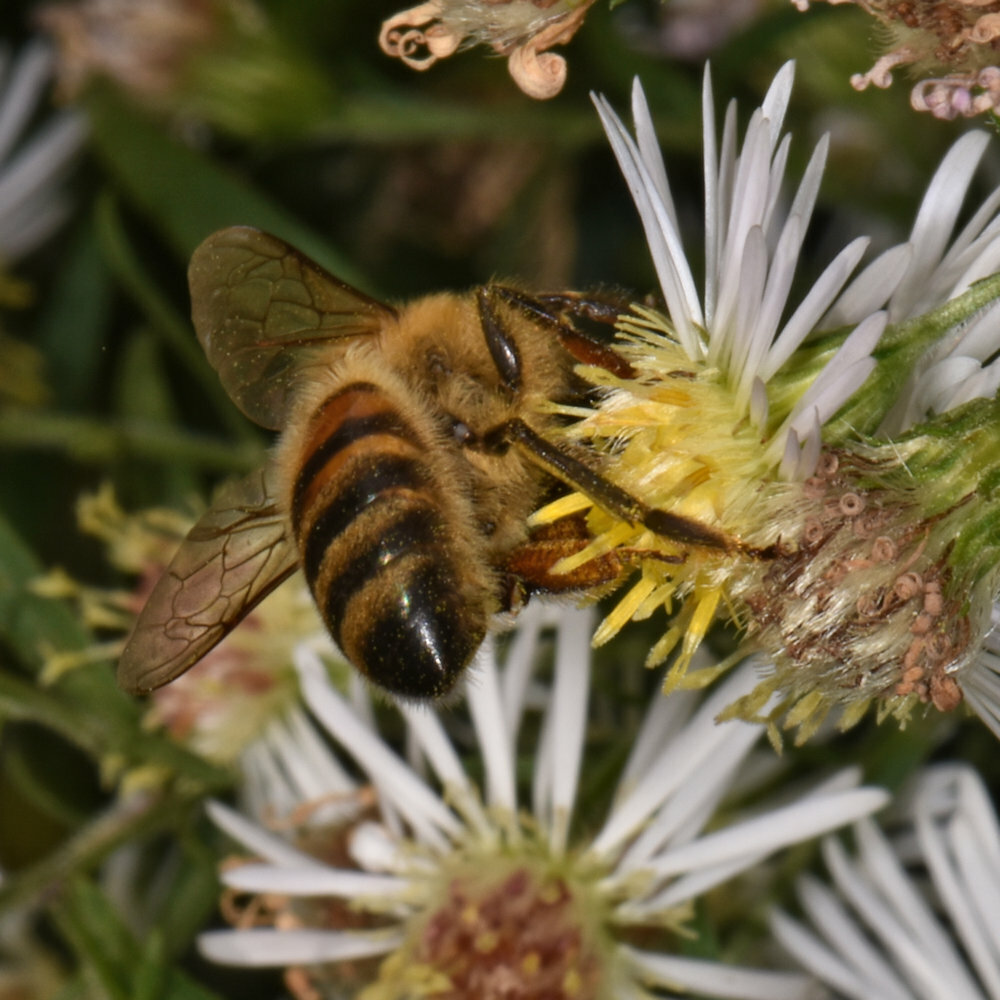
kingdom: Animalia
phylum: Arthropoda
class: Insecta
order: Hymenoptera
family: Apidae
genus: Apis
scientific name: Apis mellifera
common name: Honey bee
